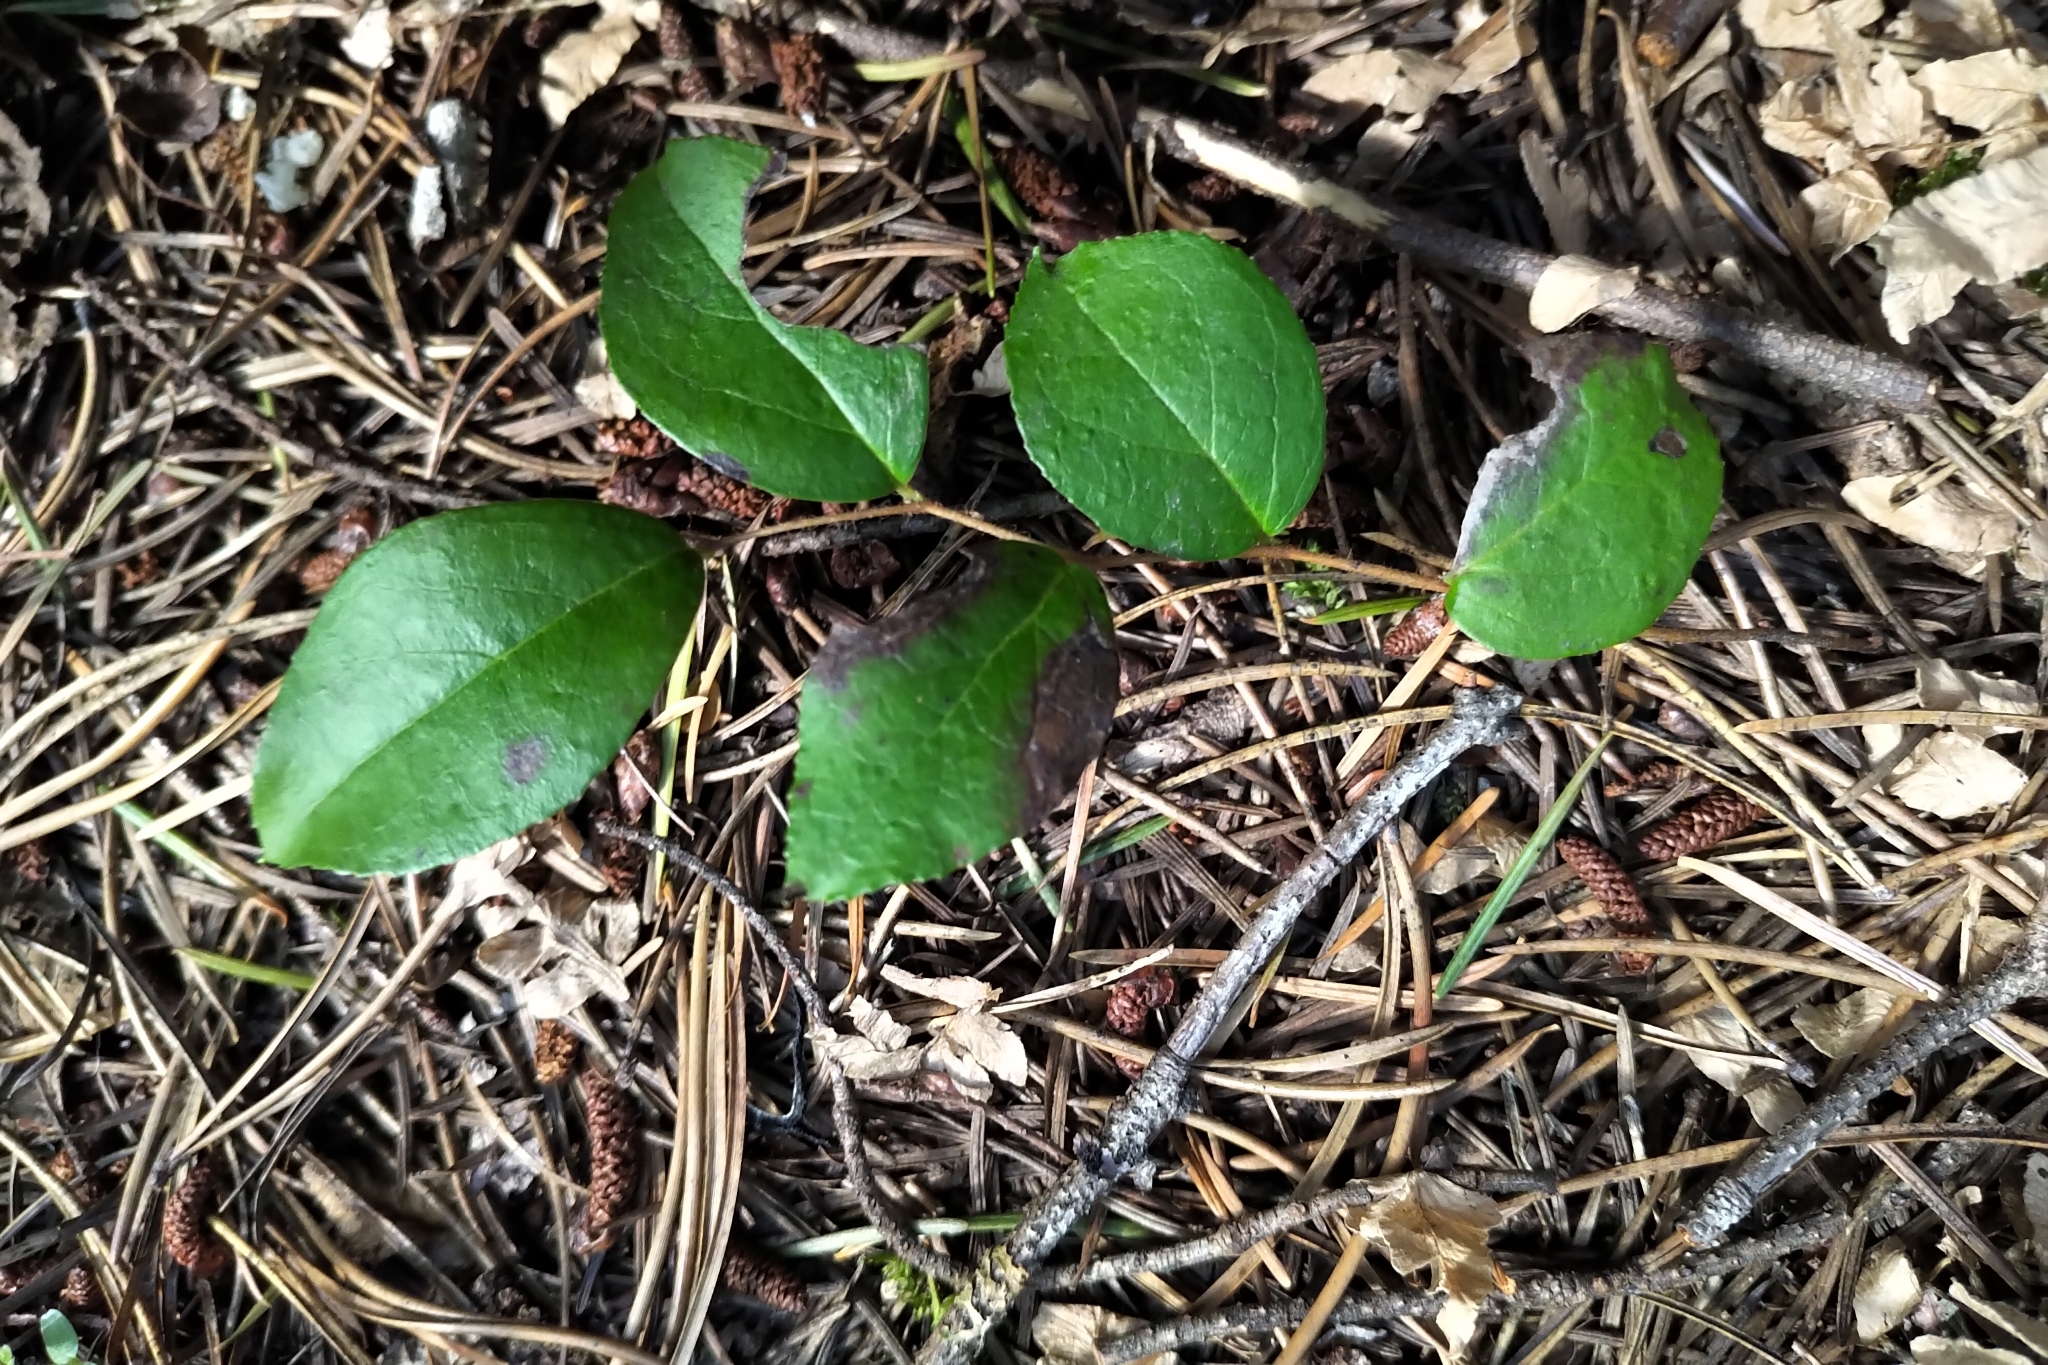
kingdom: Plantae
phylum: Tracheophyta
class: Magnoliopsida
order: Ericales
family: Ericaceae
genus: Gaultheria
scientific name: Gaultheria ovatifolia
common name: Oregon wintergreen
